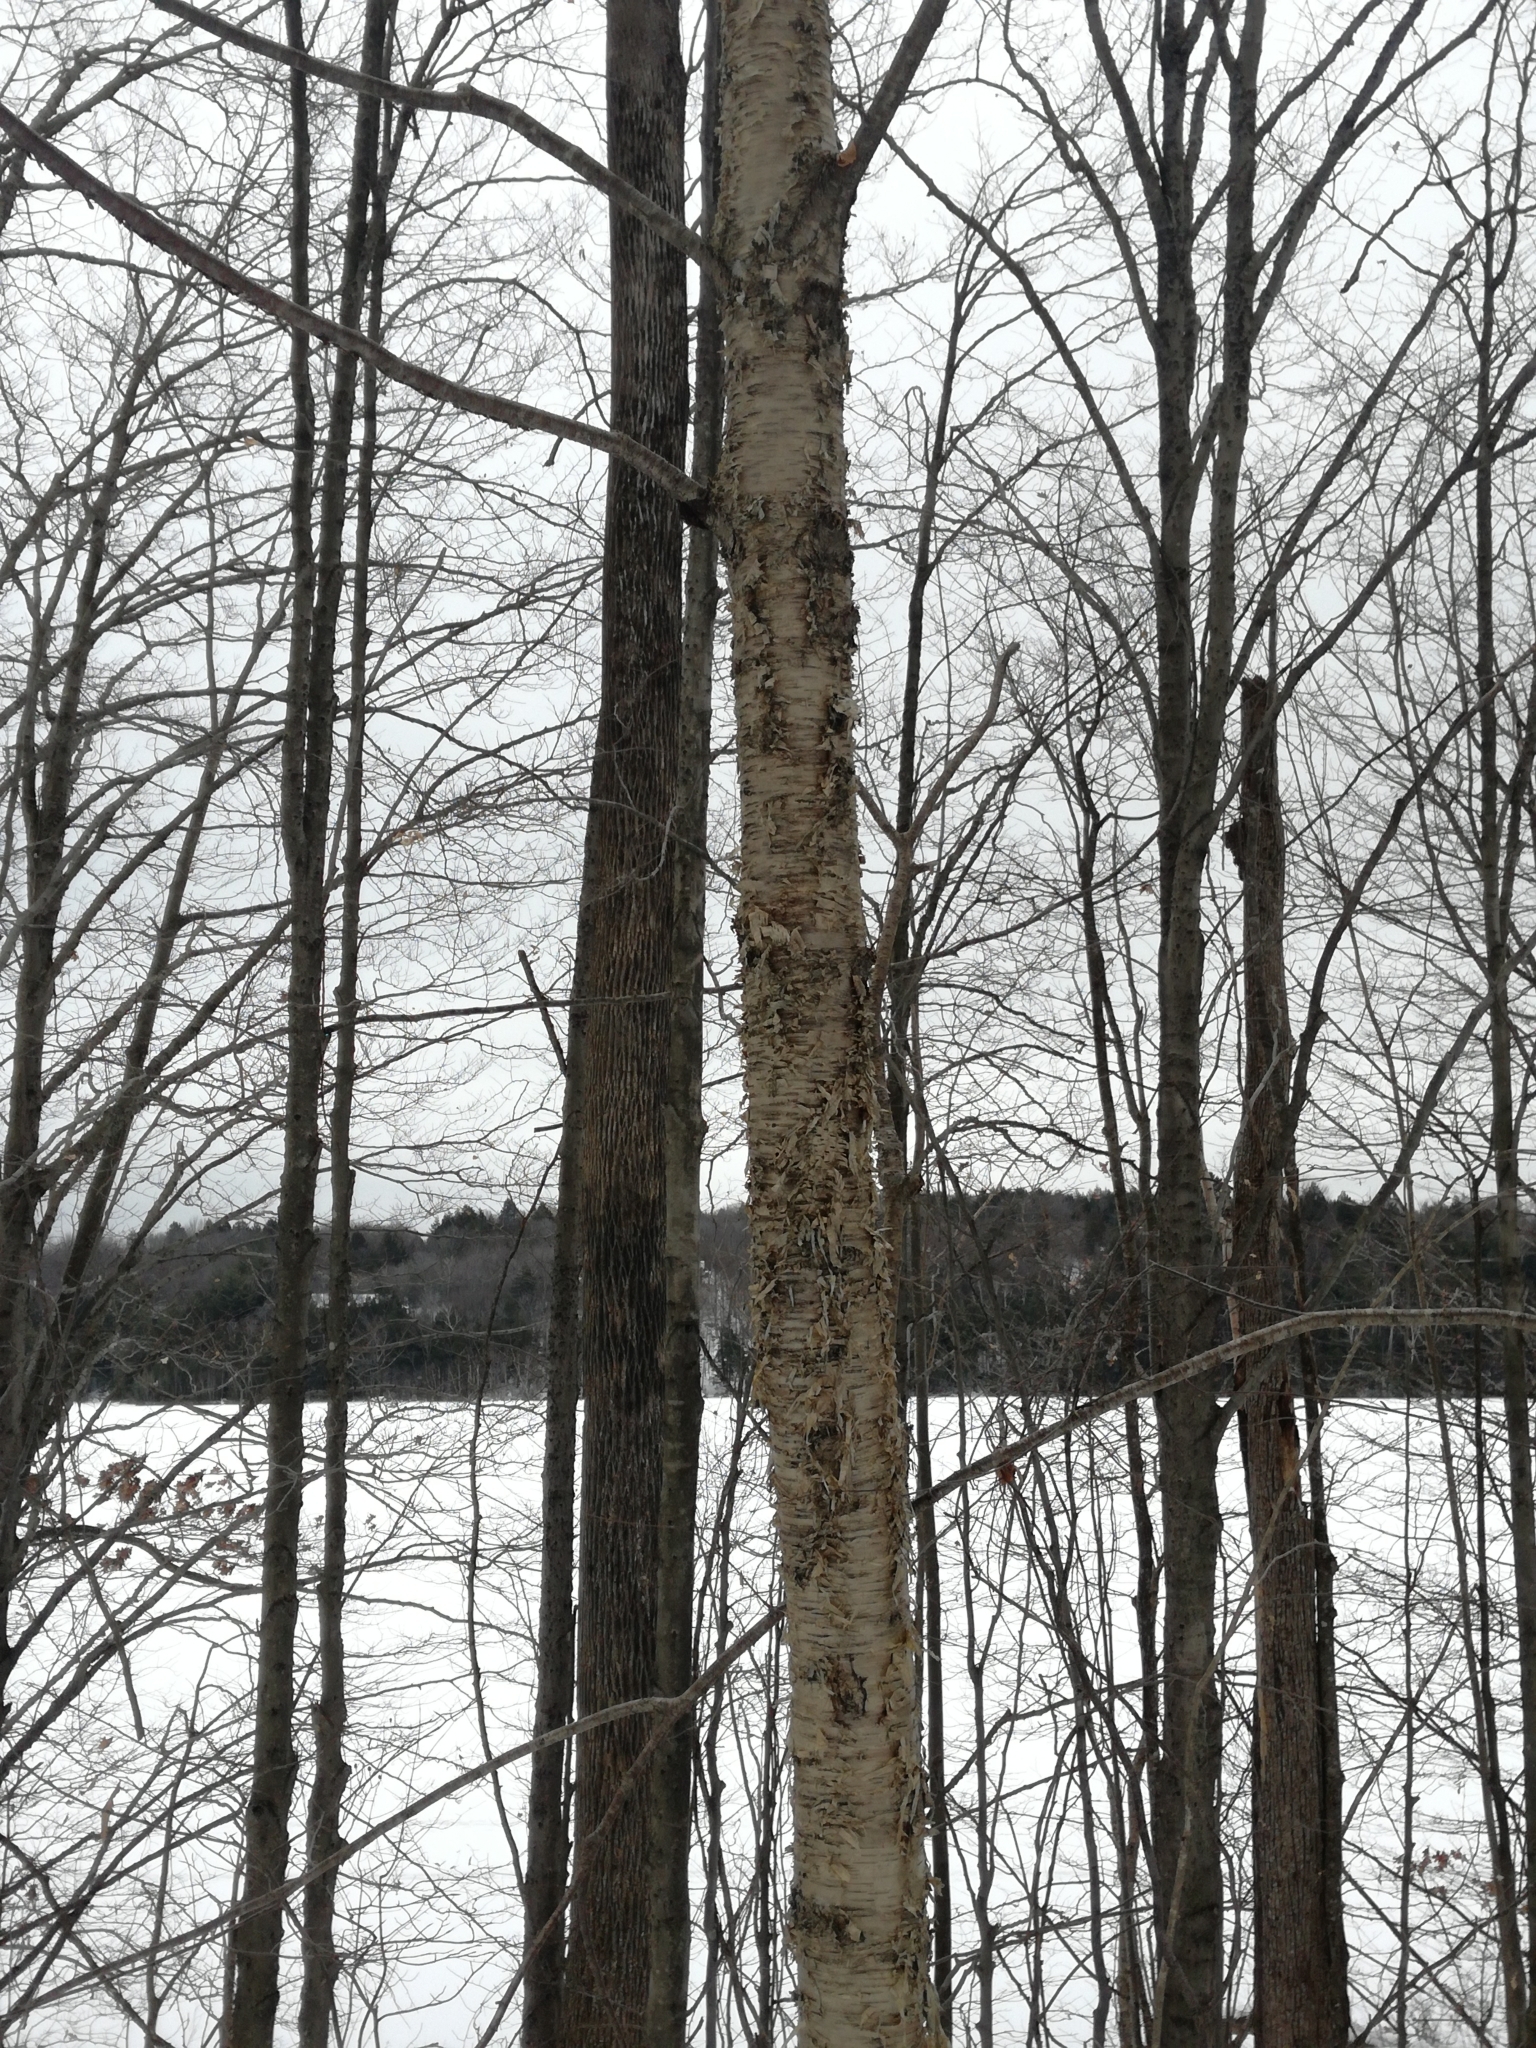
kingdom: Plantae
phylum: Tracheophyta
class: Magnoliopsida
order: Fagales
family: Betulaceae
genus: Betula
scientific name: Betula alleghaniensis
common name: Yellow birch
